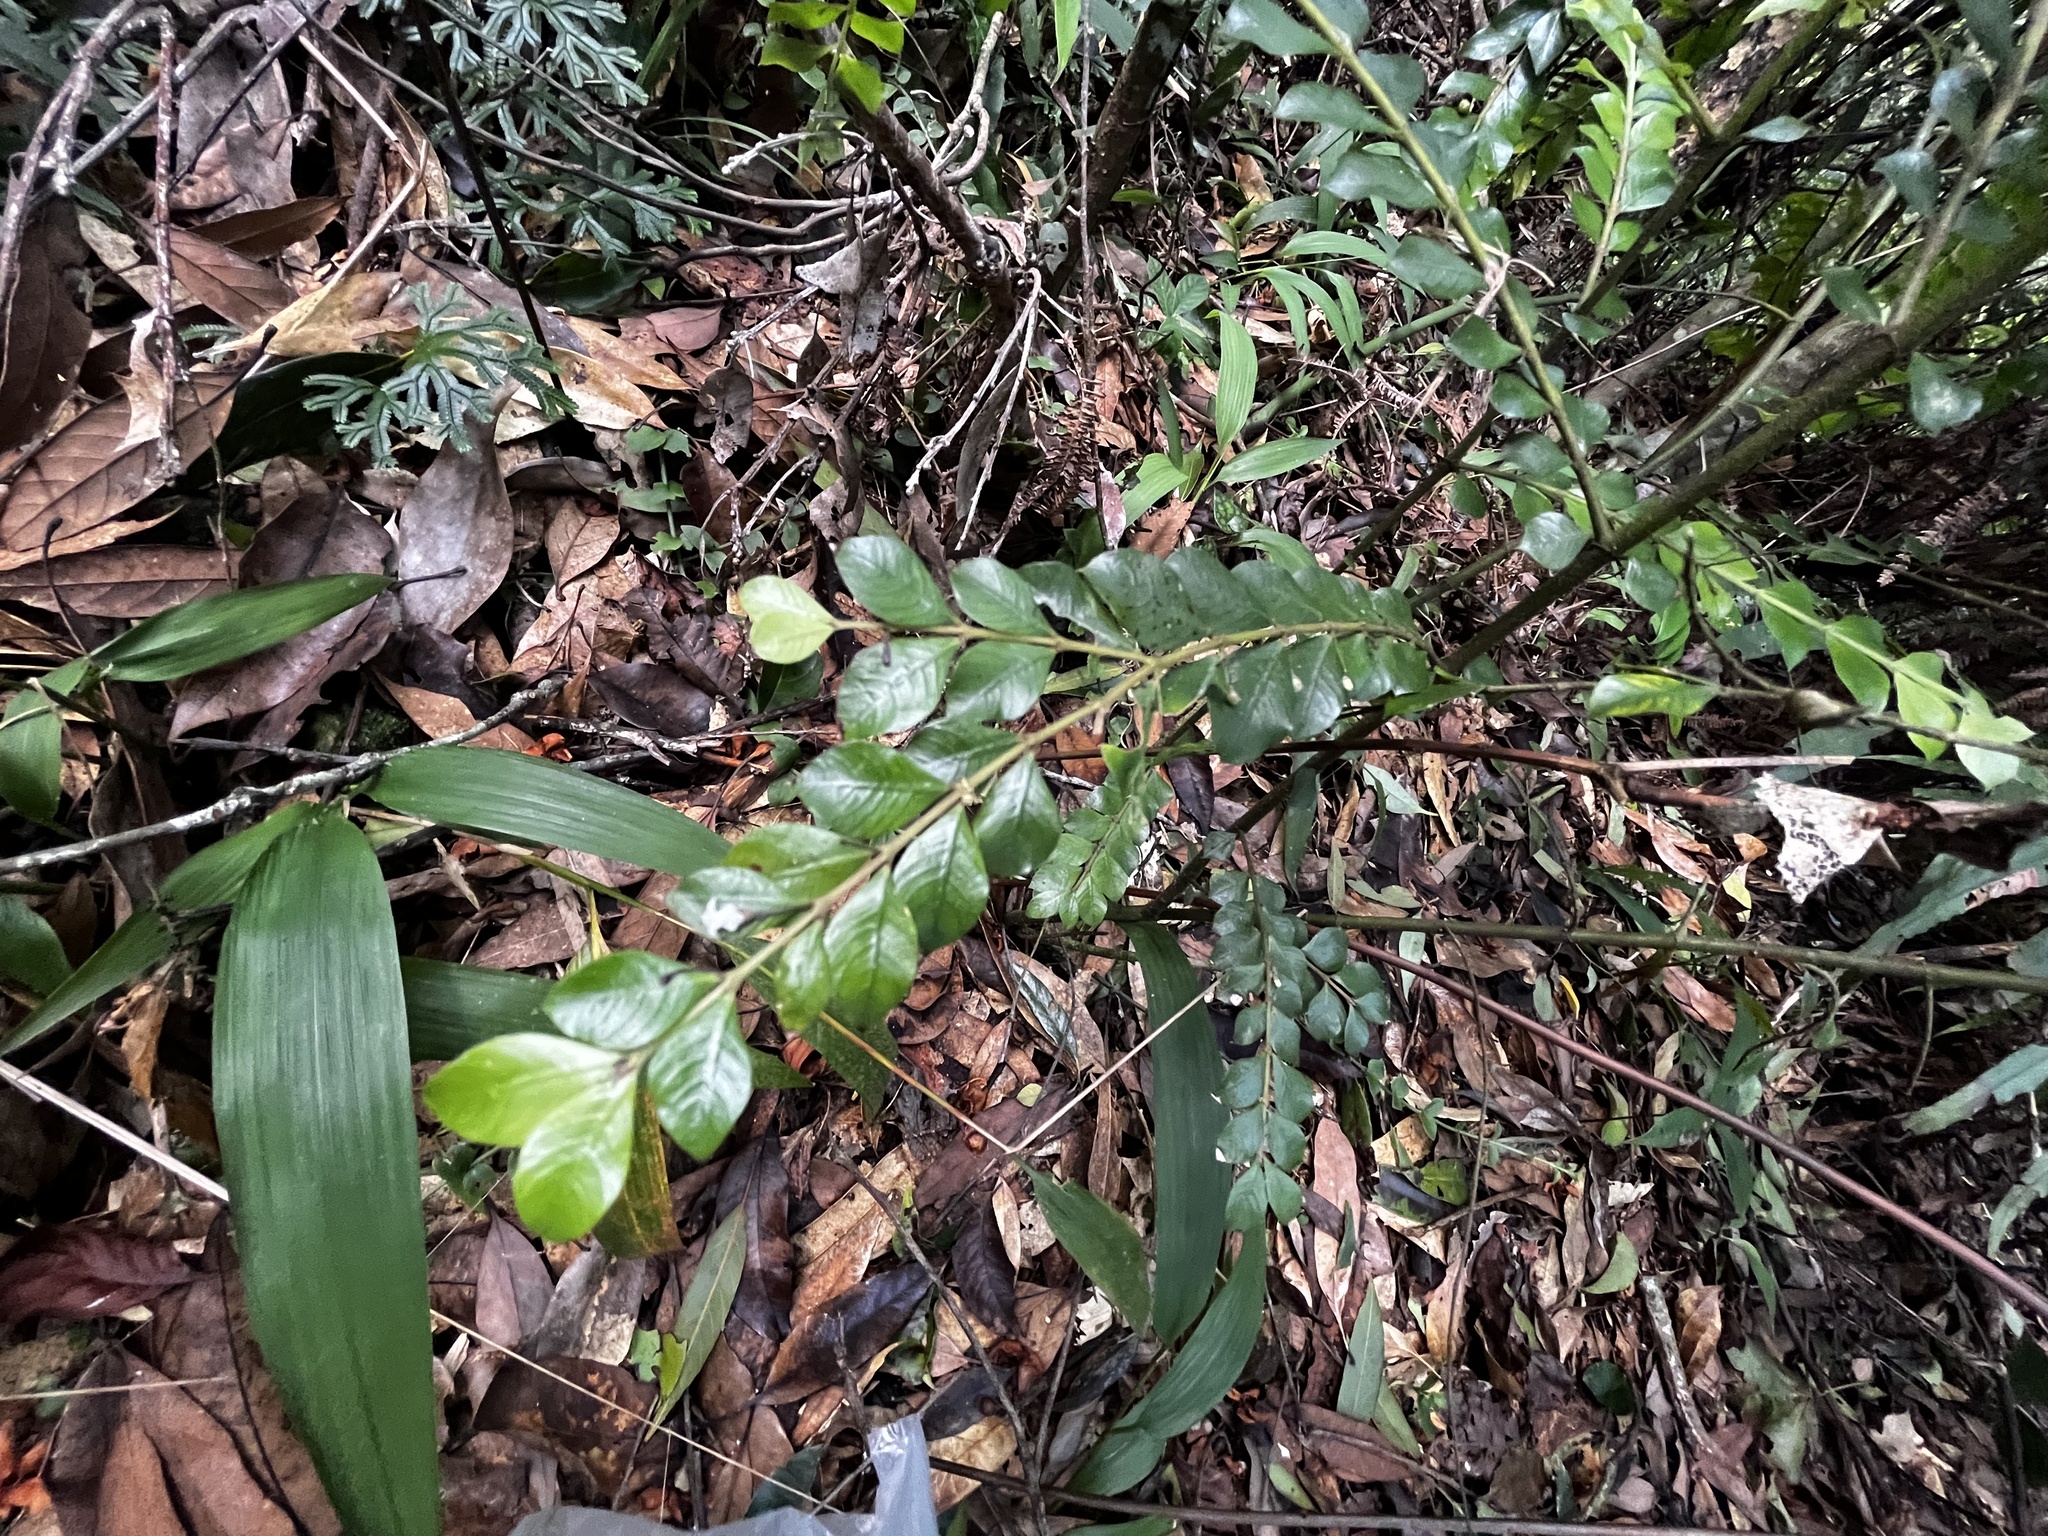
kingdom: Plantae
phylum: Tracheophyta
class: Magnoliopsida
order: Gentianales
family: Rubiaceae
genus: Lasianthus
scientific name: Lasianthus biflorus
